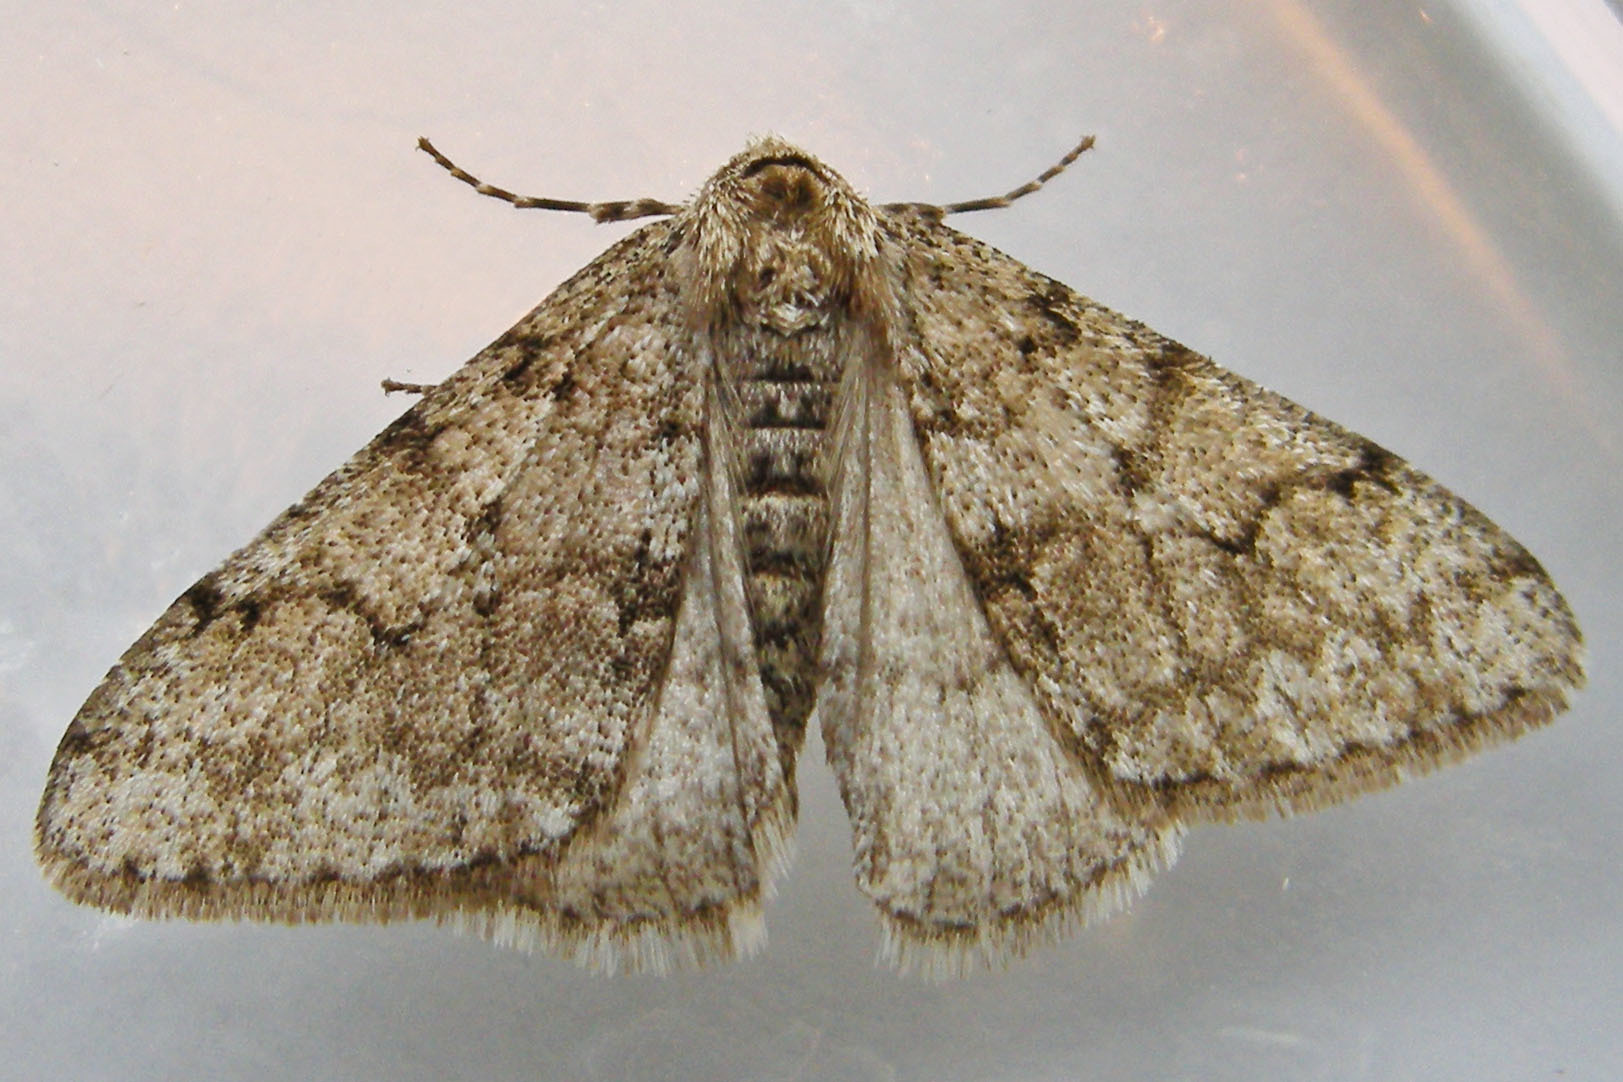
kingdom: Animalia
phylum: Arthropoda
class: Insecta
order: Lepidoptera
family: Geometridae
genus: Phigalia
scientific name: Phigalia strigataria
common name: Small phigalia
